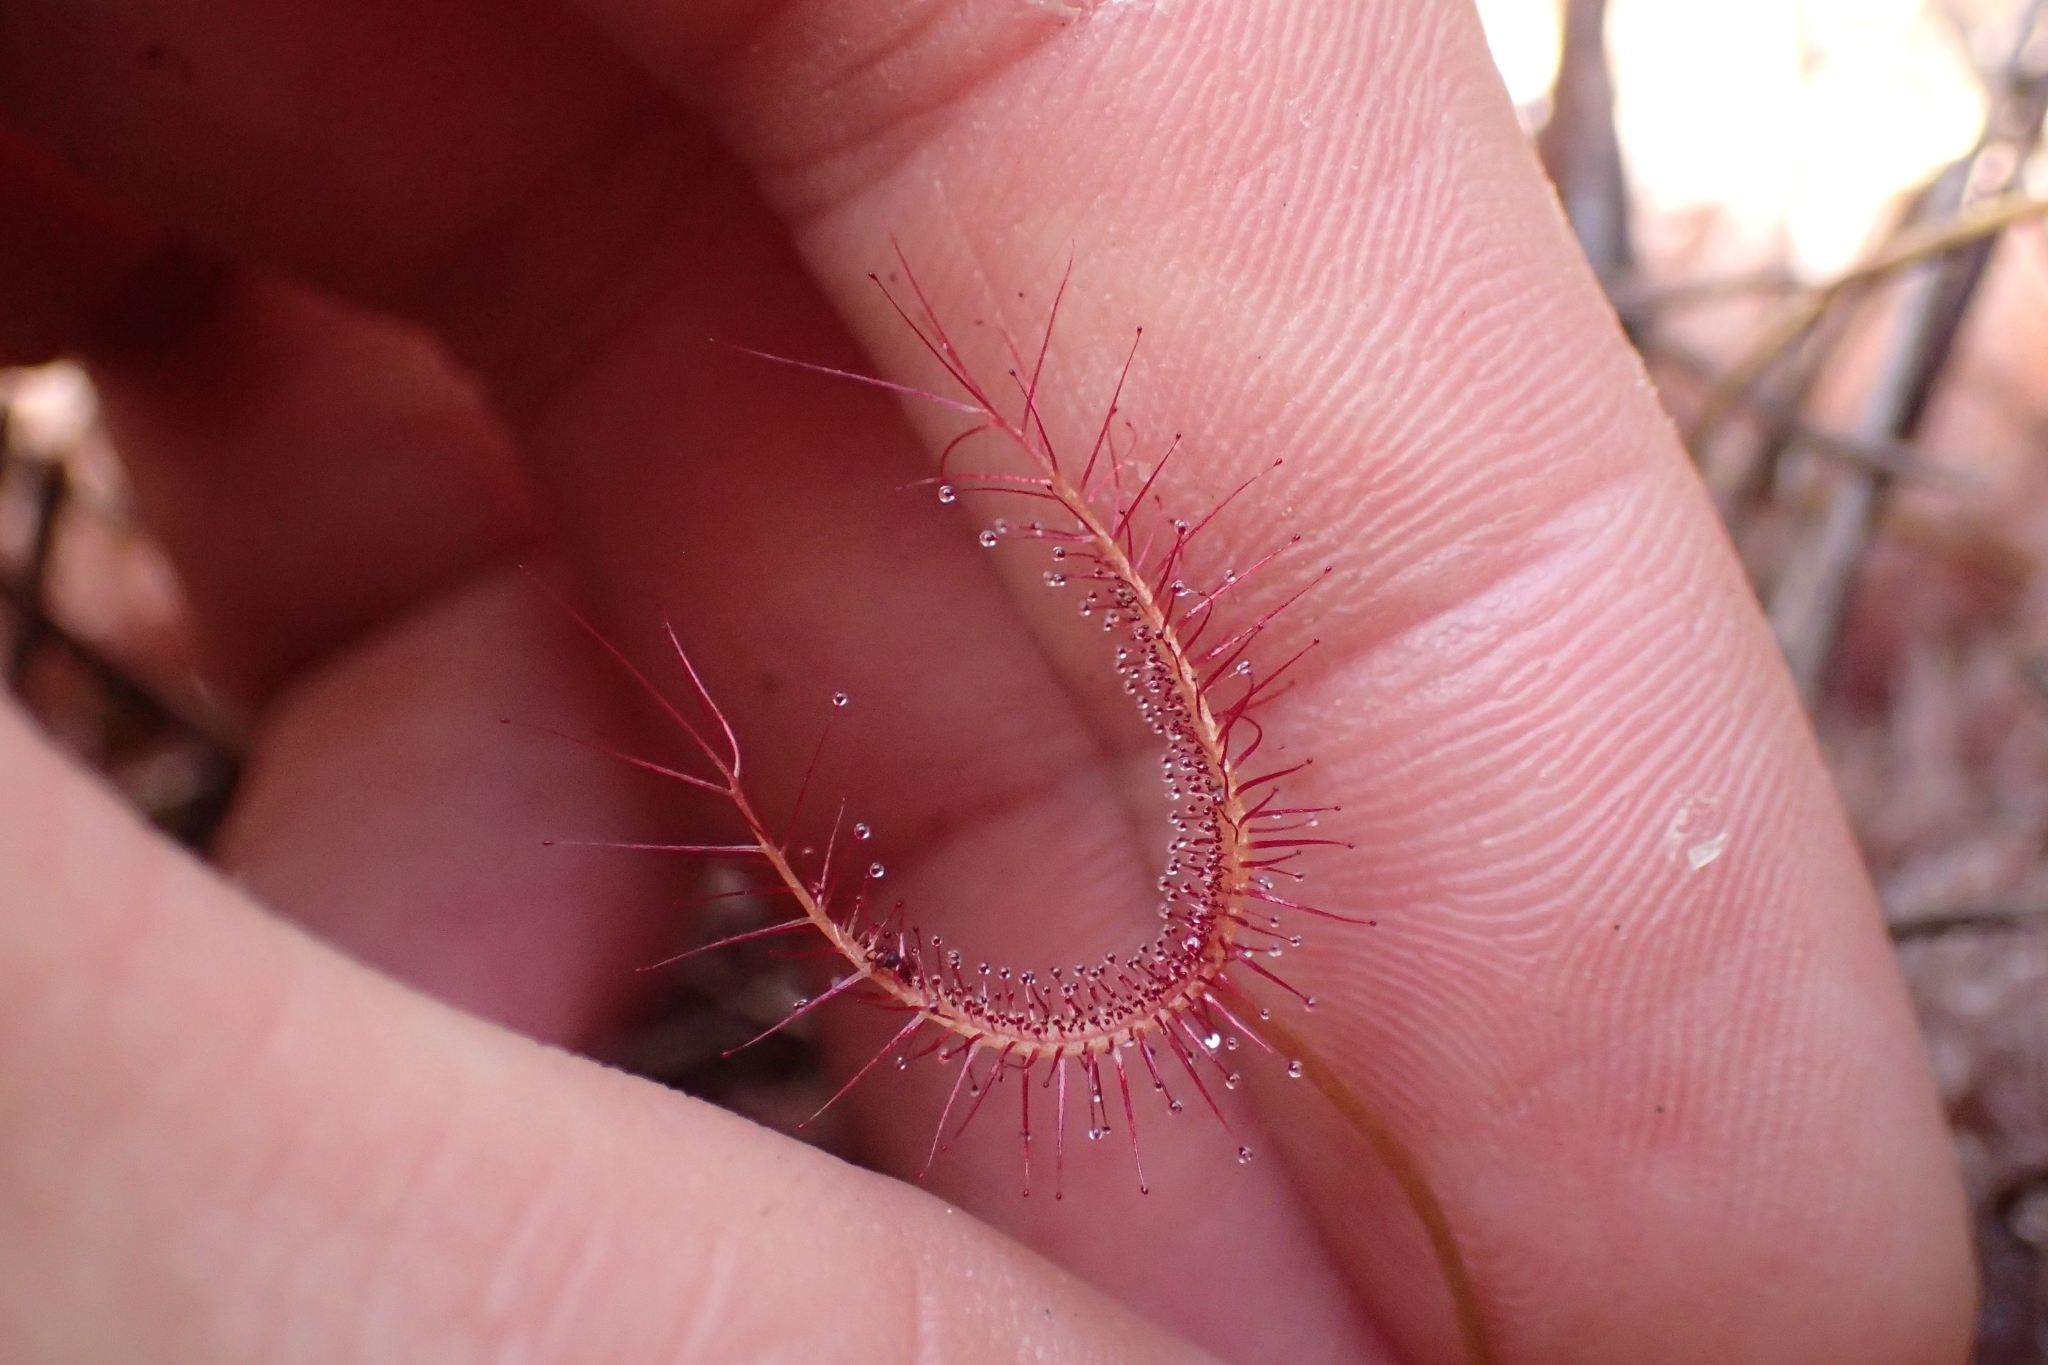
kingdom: Plantae
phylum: Tracheophyta
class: Magnoliopsida
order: Caryophyllales
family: Droseraceae
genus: Drosera
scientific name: Drosera binata
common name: Forked sundew
